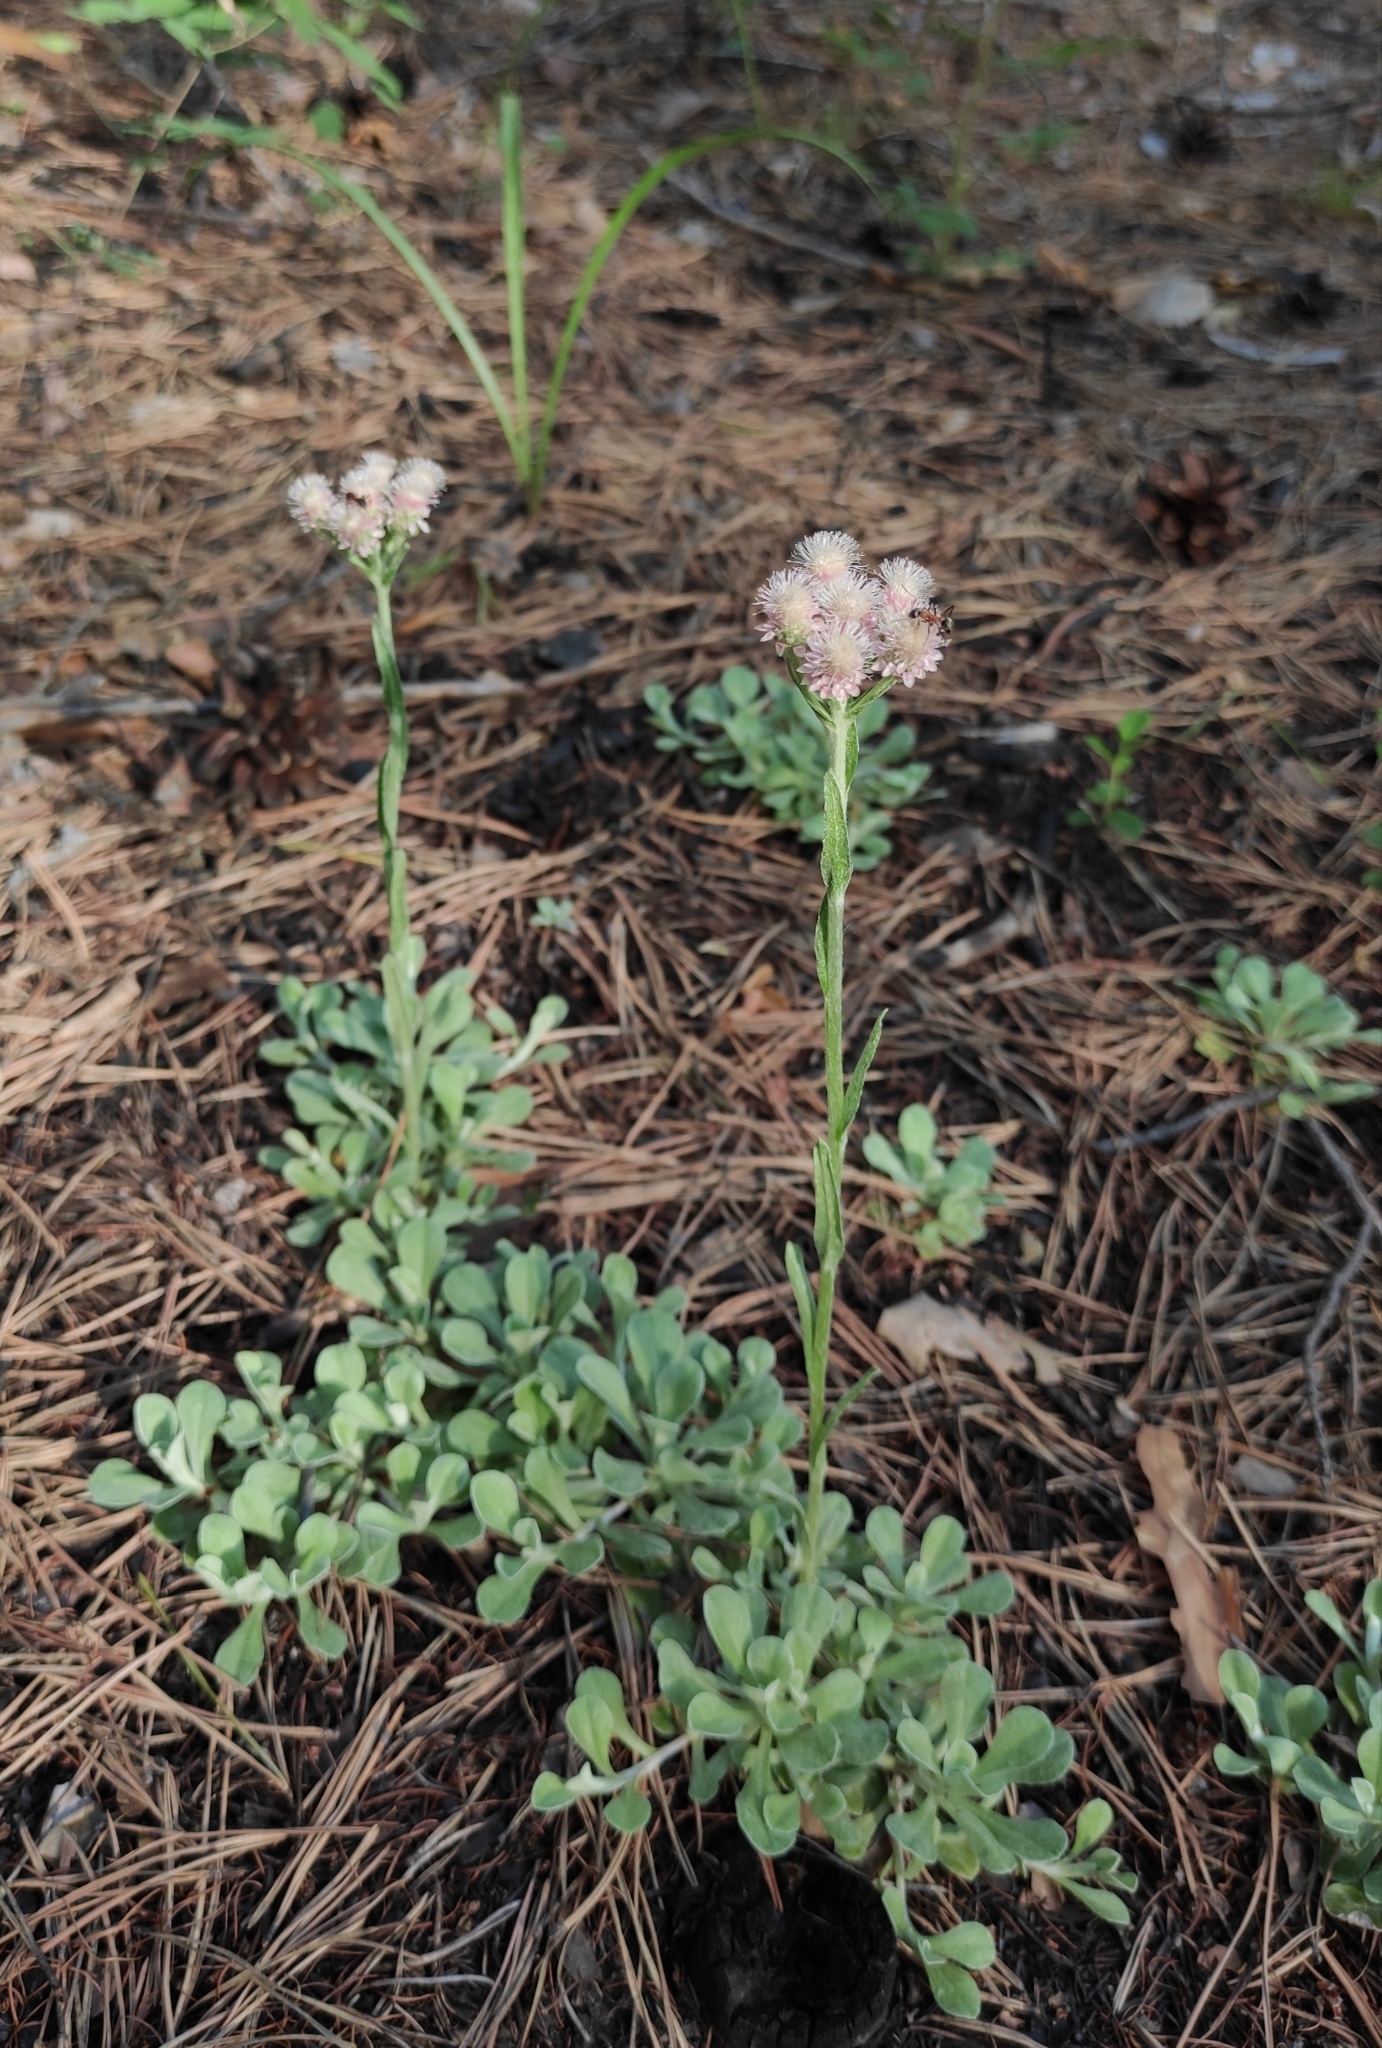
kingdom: Plantae
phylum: Tracheophyta
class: Magnoliopsida
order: Asterales
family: Asteraceae
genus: Antennaria
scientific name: Antennaria dioica
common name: Mountain everlasting
